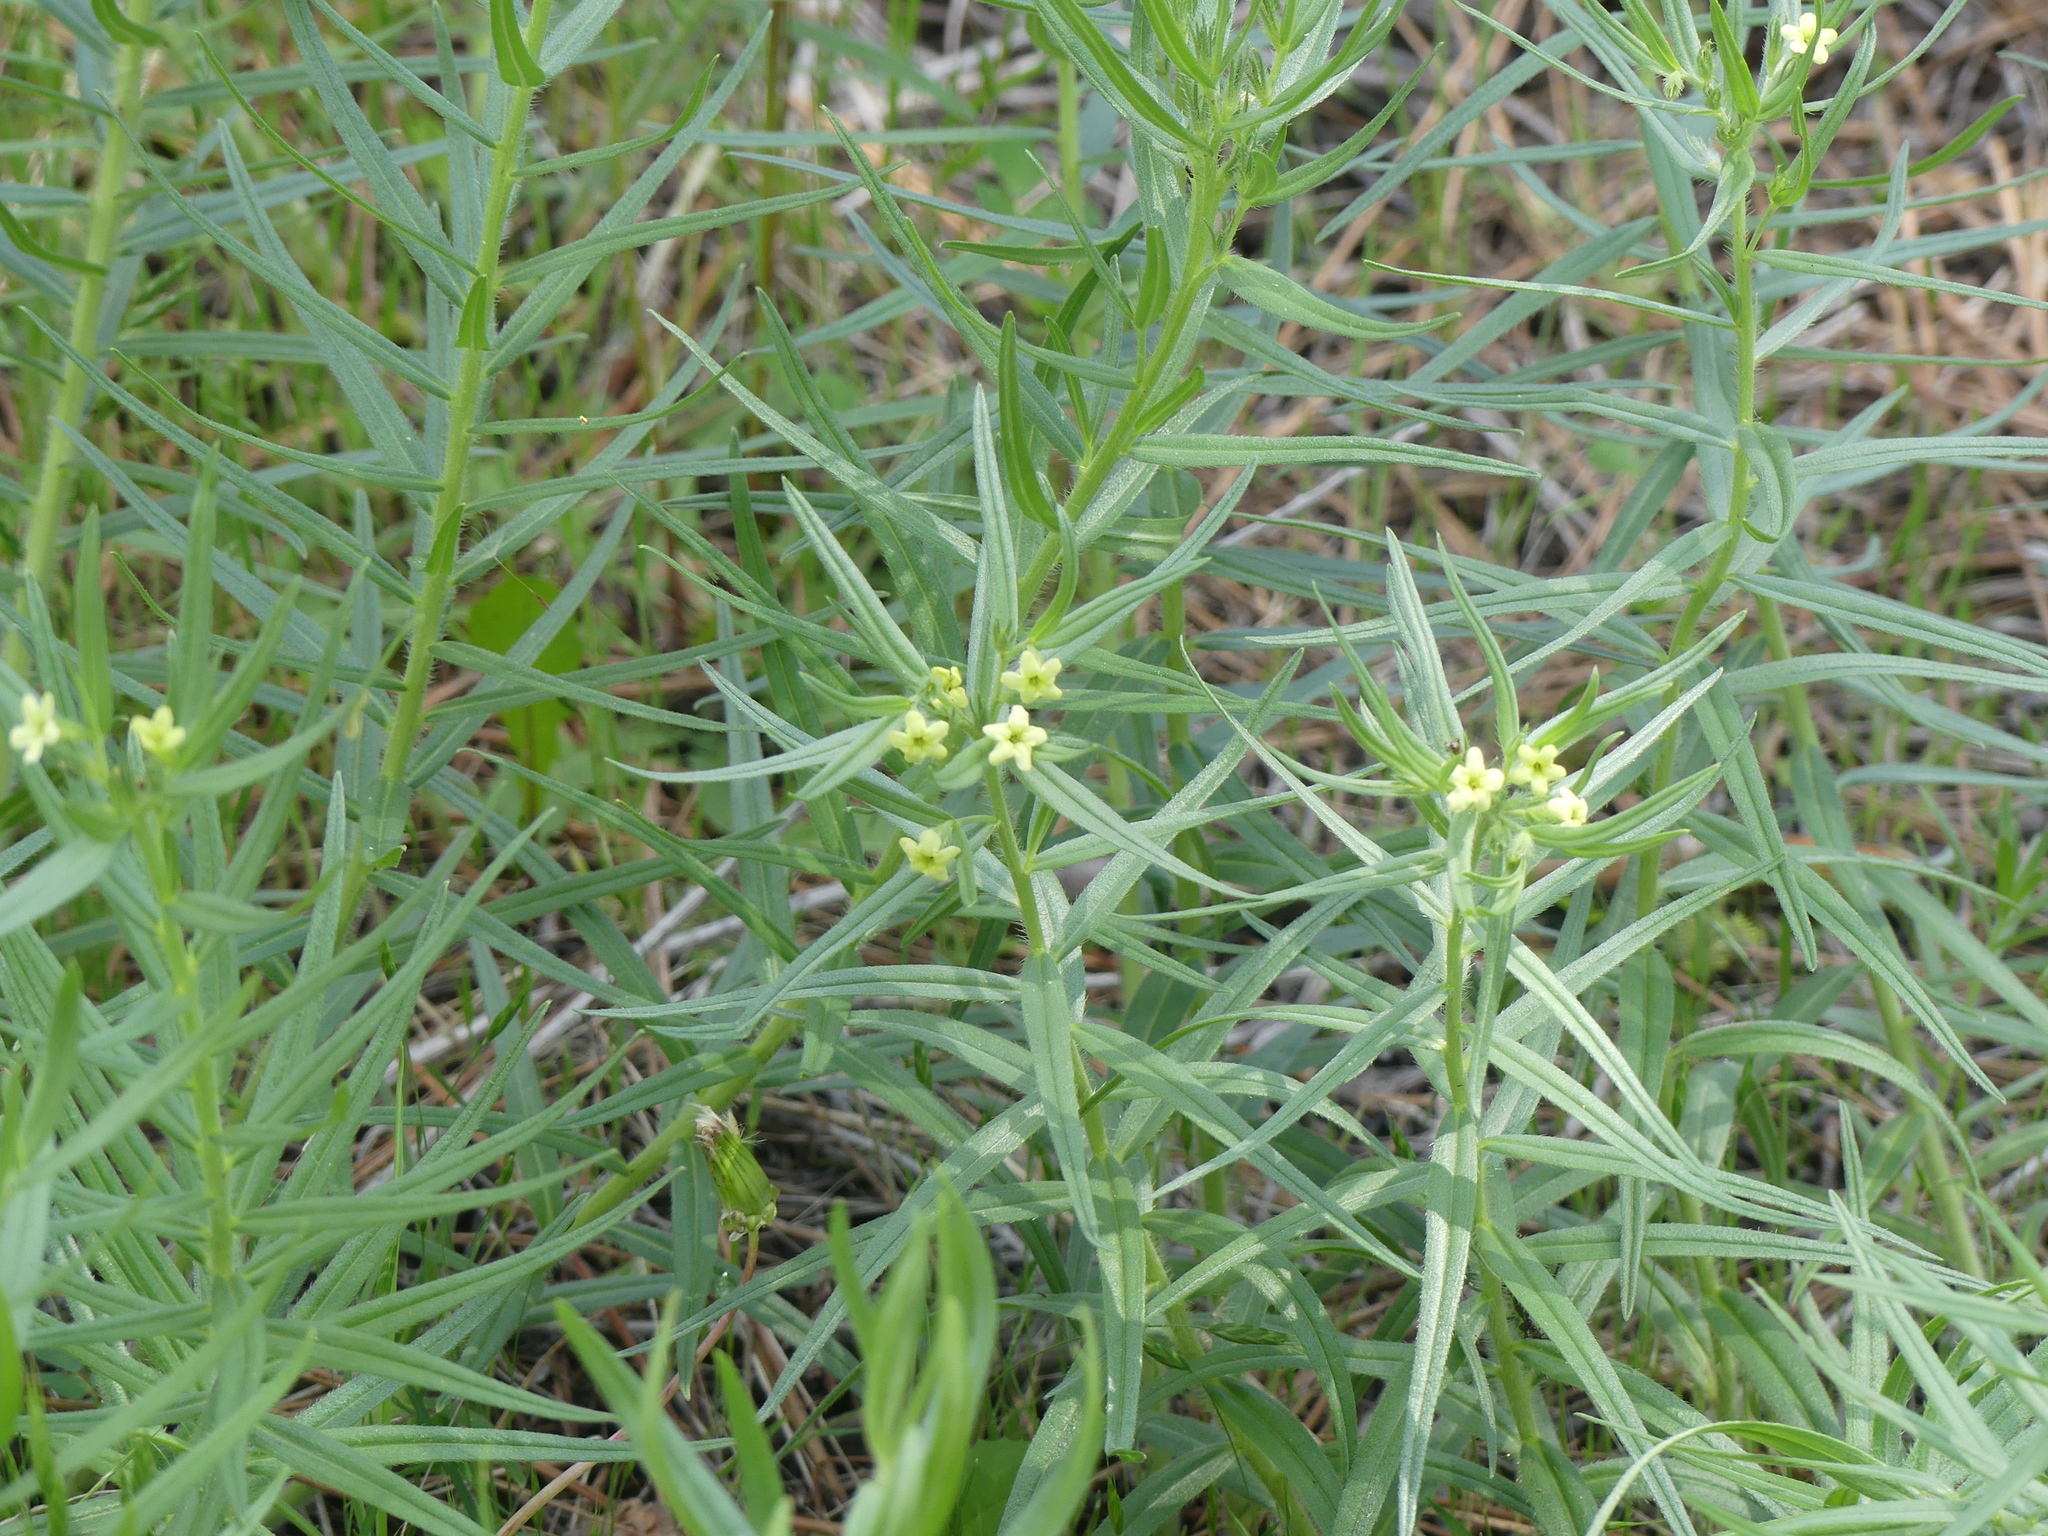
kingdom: Plantae
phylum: Tracheophyta
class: Magnoliopsida
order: Boraginales
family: Boraginaceae
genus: Lithospermum
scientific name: Lithospermum ruderale
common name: Western gromwell
